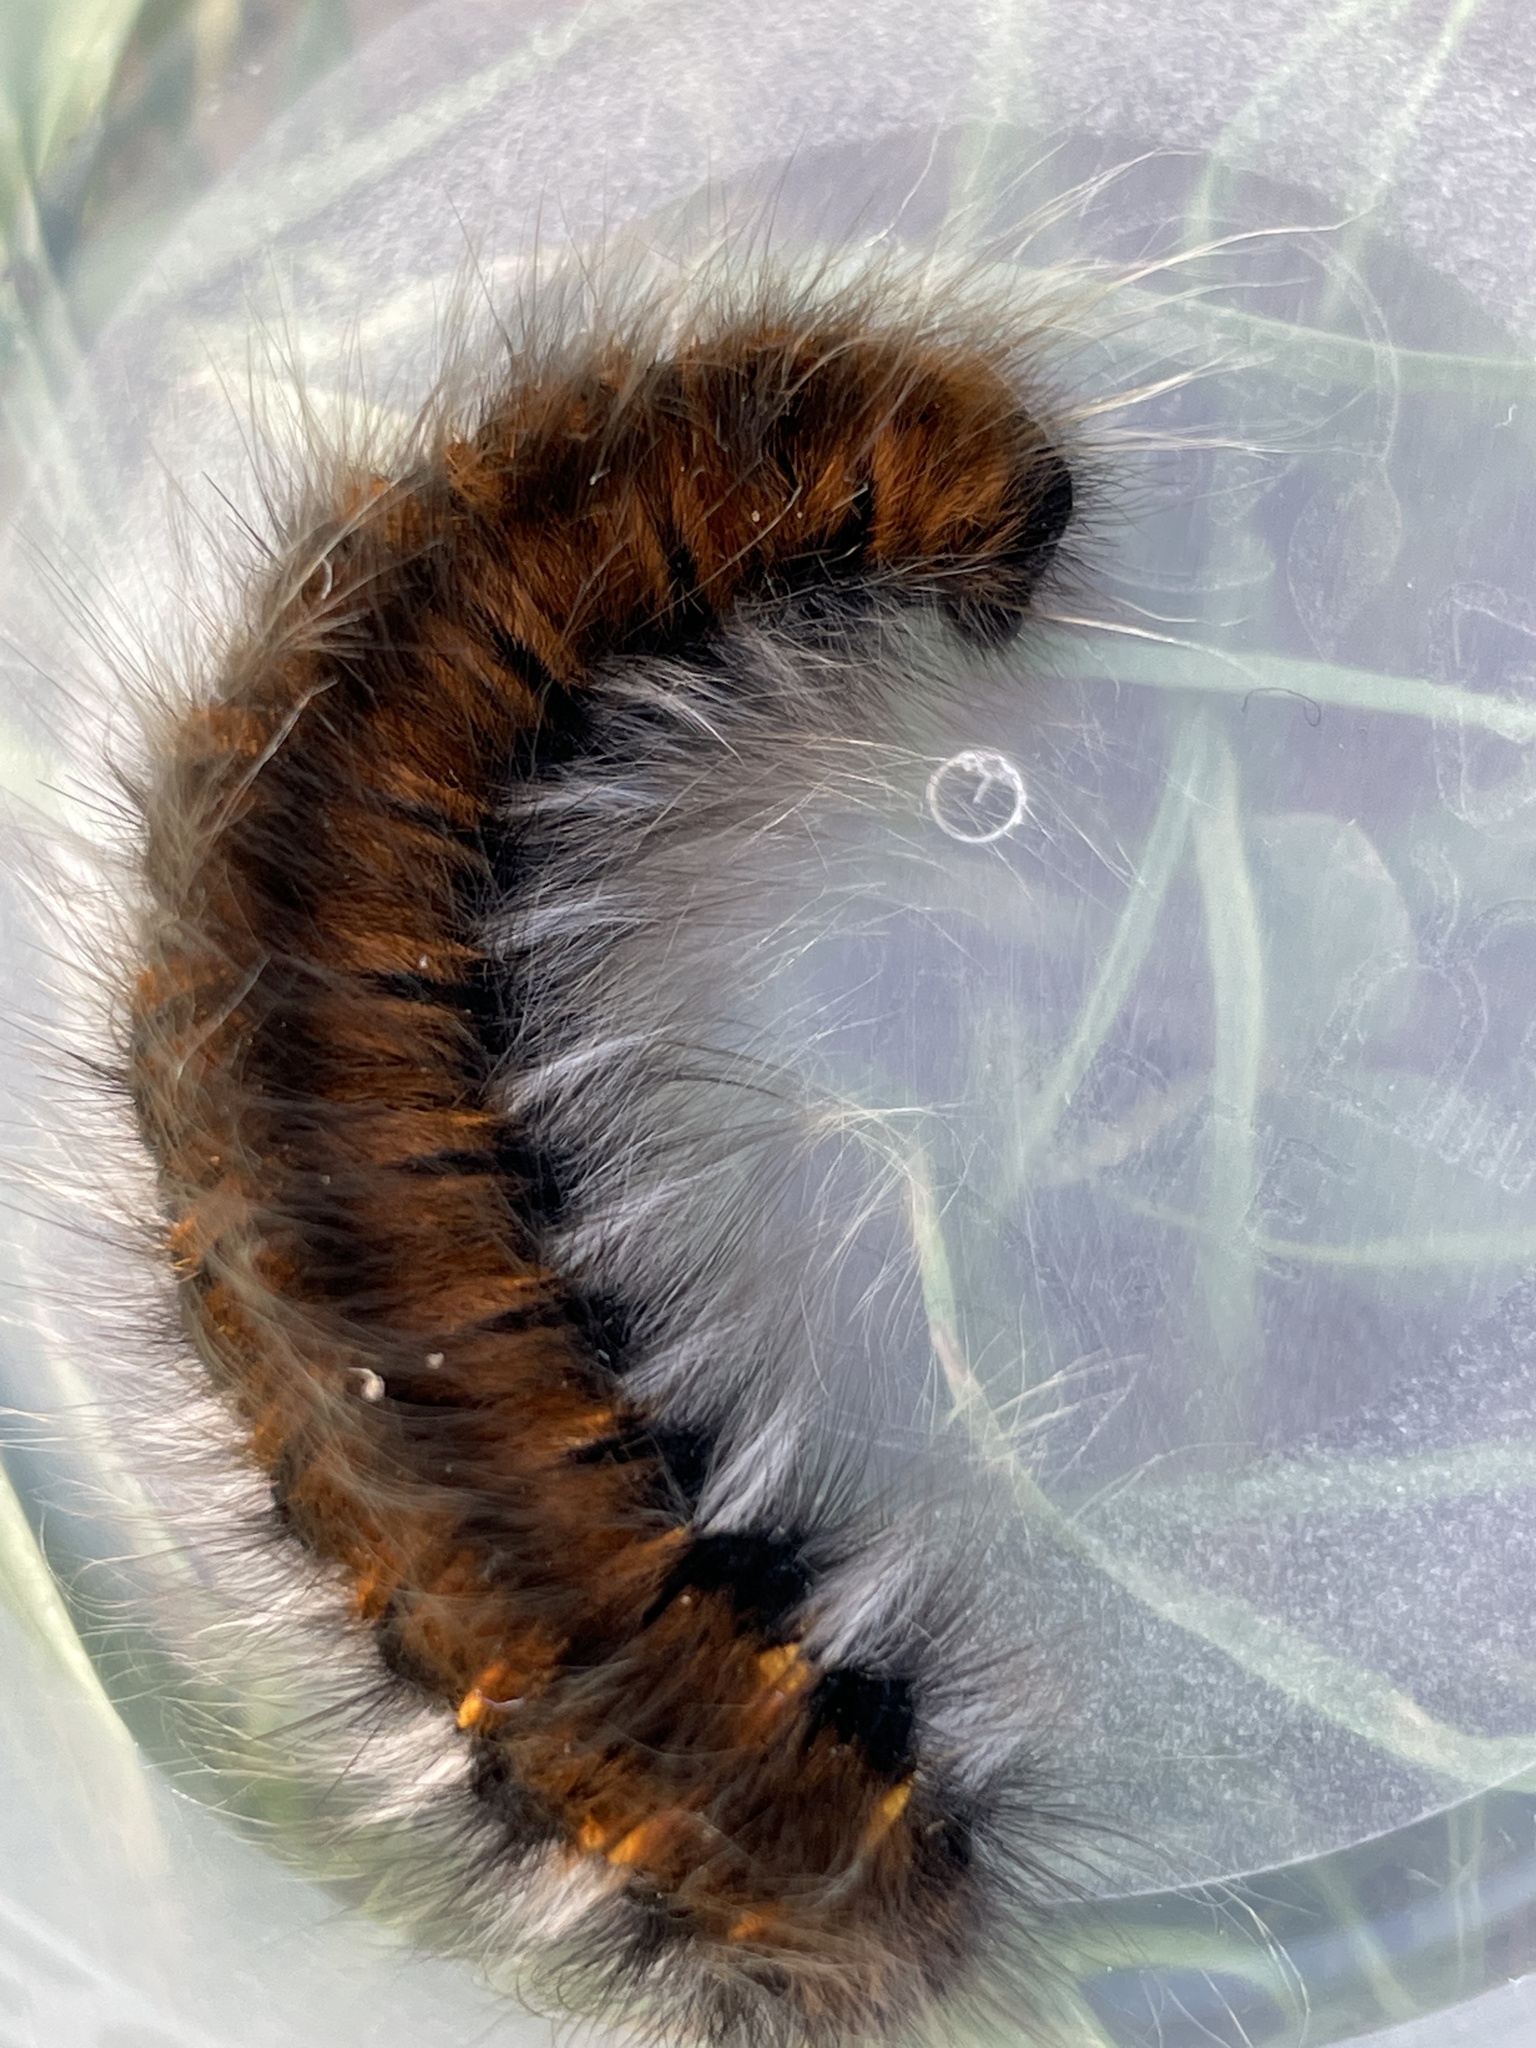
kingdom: Animalia
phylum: Arthropoda
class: Insecta
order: Lepidoptera
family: Lasiocampidae
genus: Macrothylacia
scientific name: Macrothylacia rubi
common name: Fox moth
